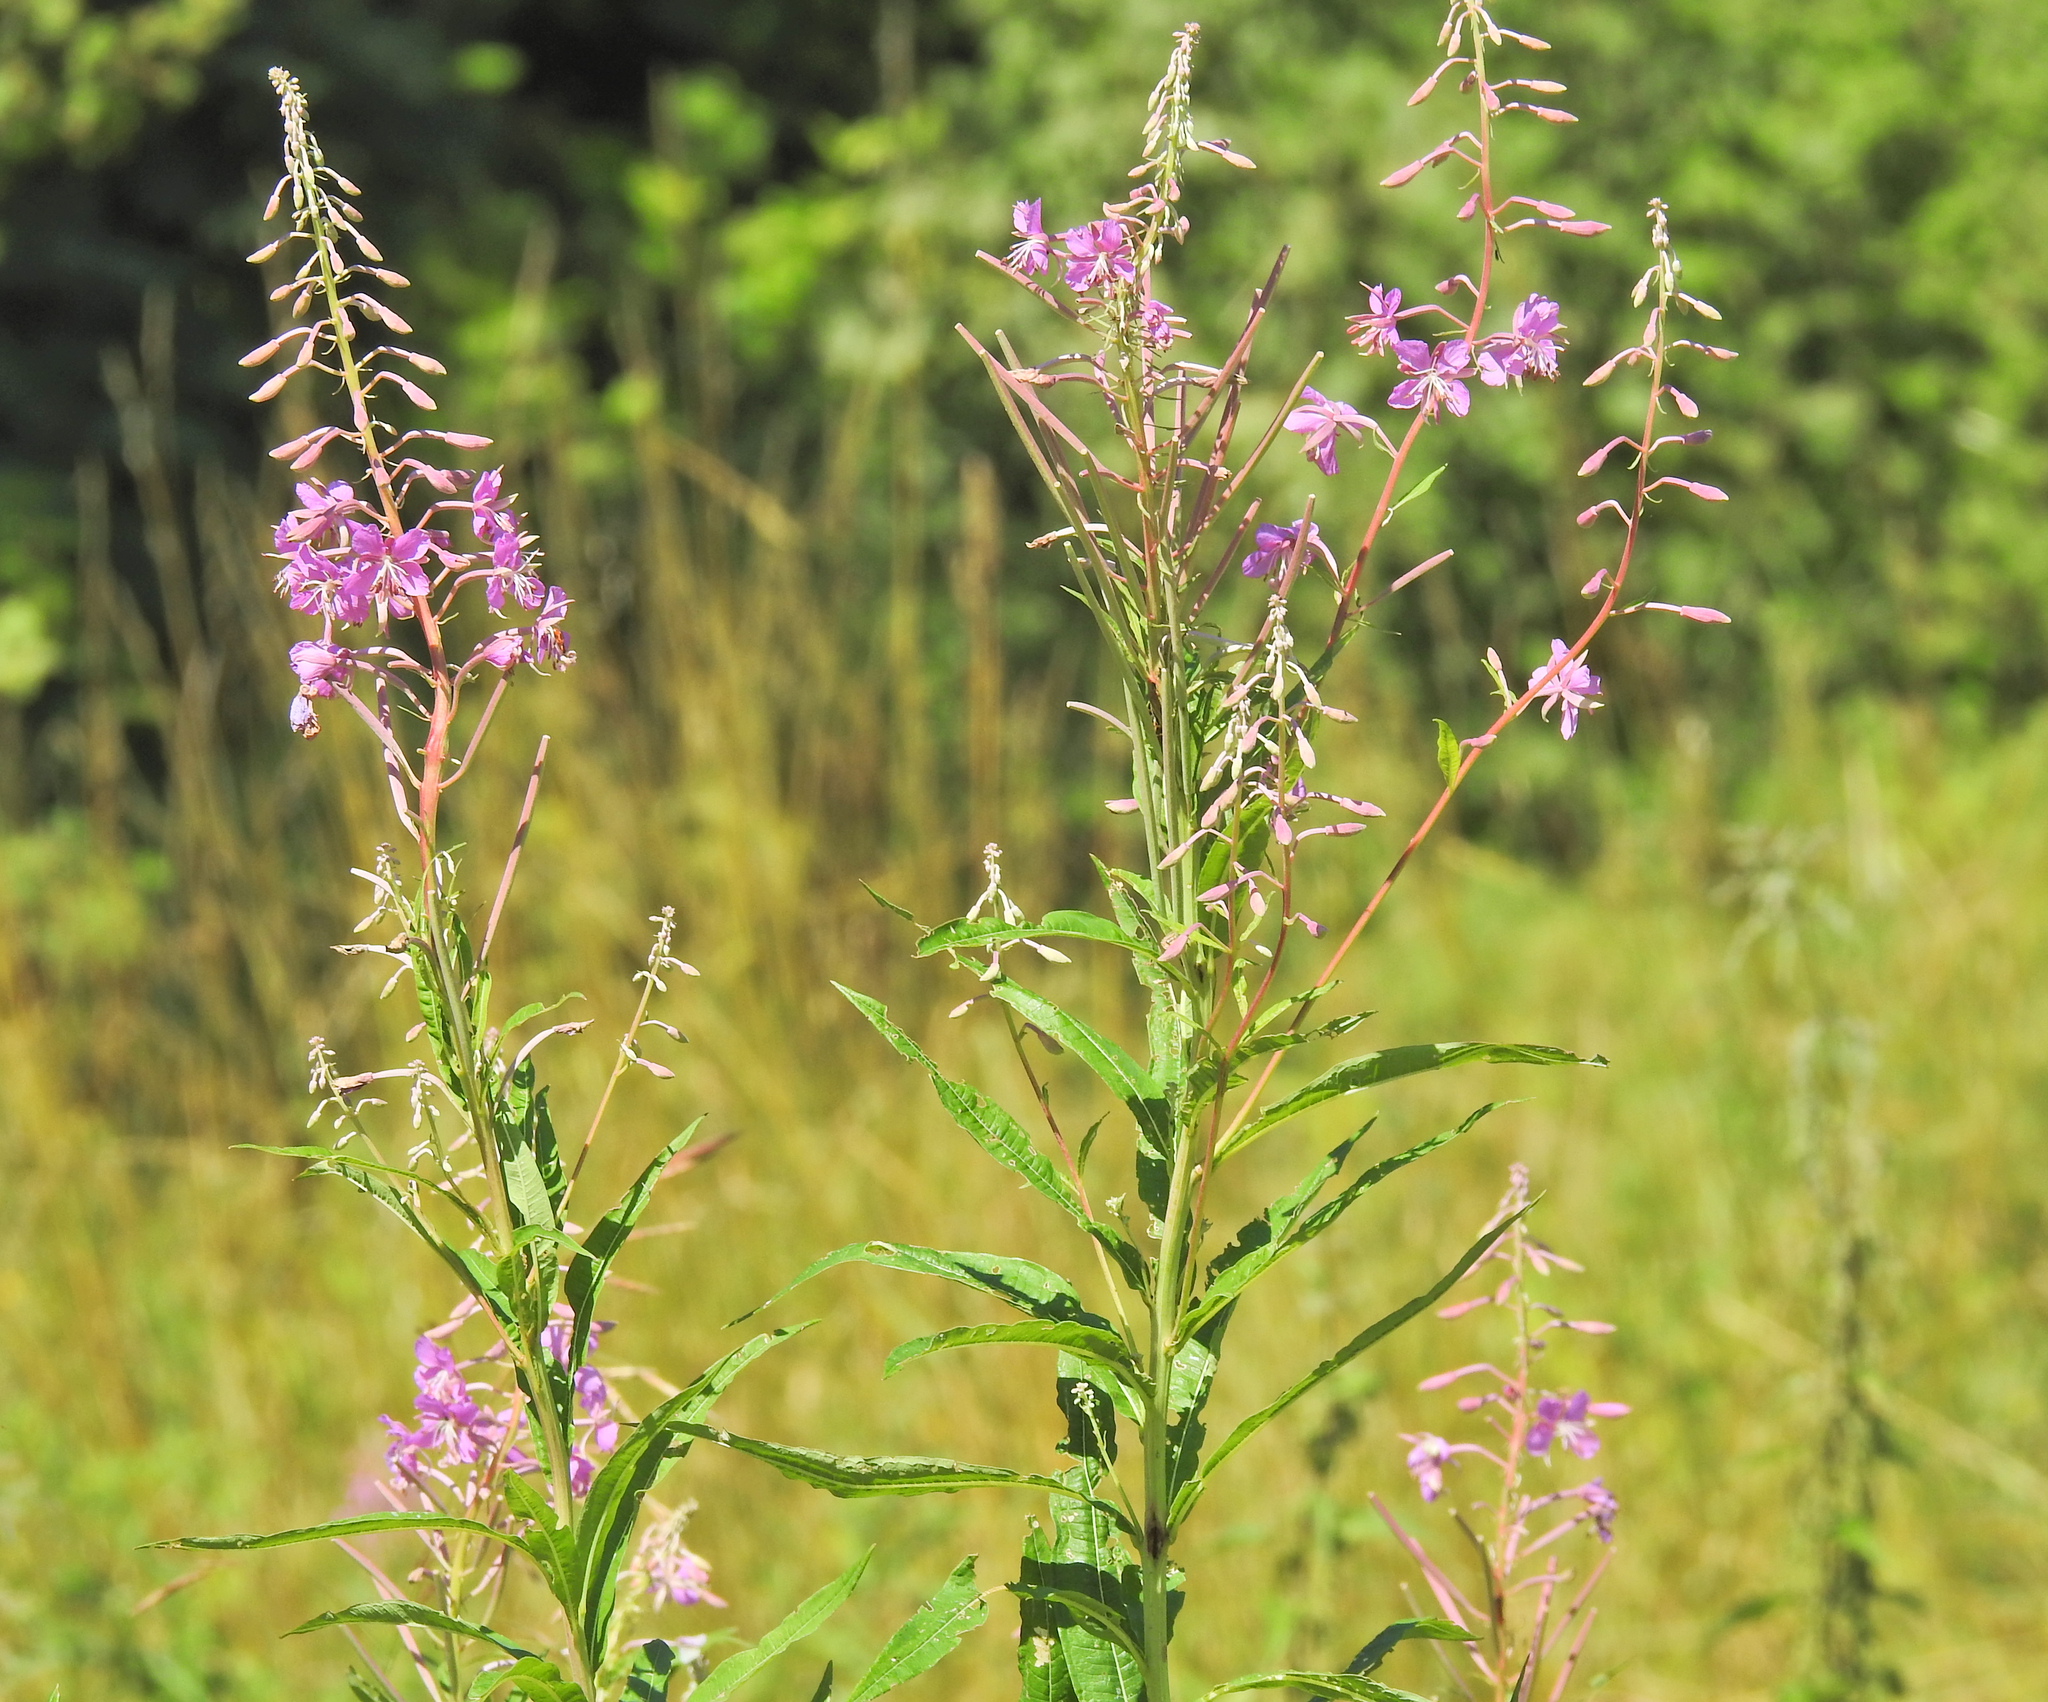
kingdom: Plantae
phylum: Tracheophyta
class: Magnoliopsida
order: Myrtales
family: Onagraceae
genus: Chamaenerion
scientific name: Chamaenerion angustifolium
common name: Fireweed
